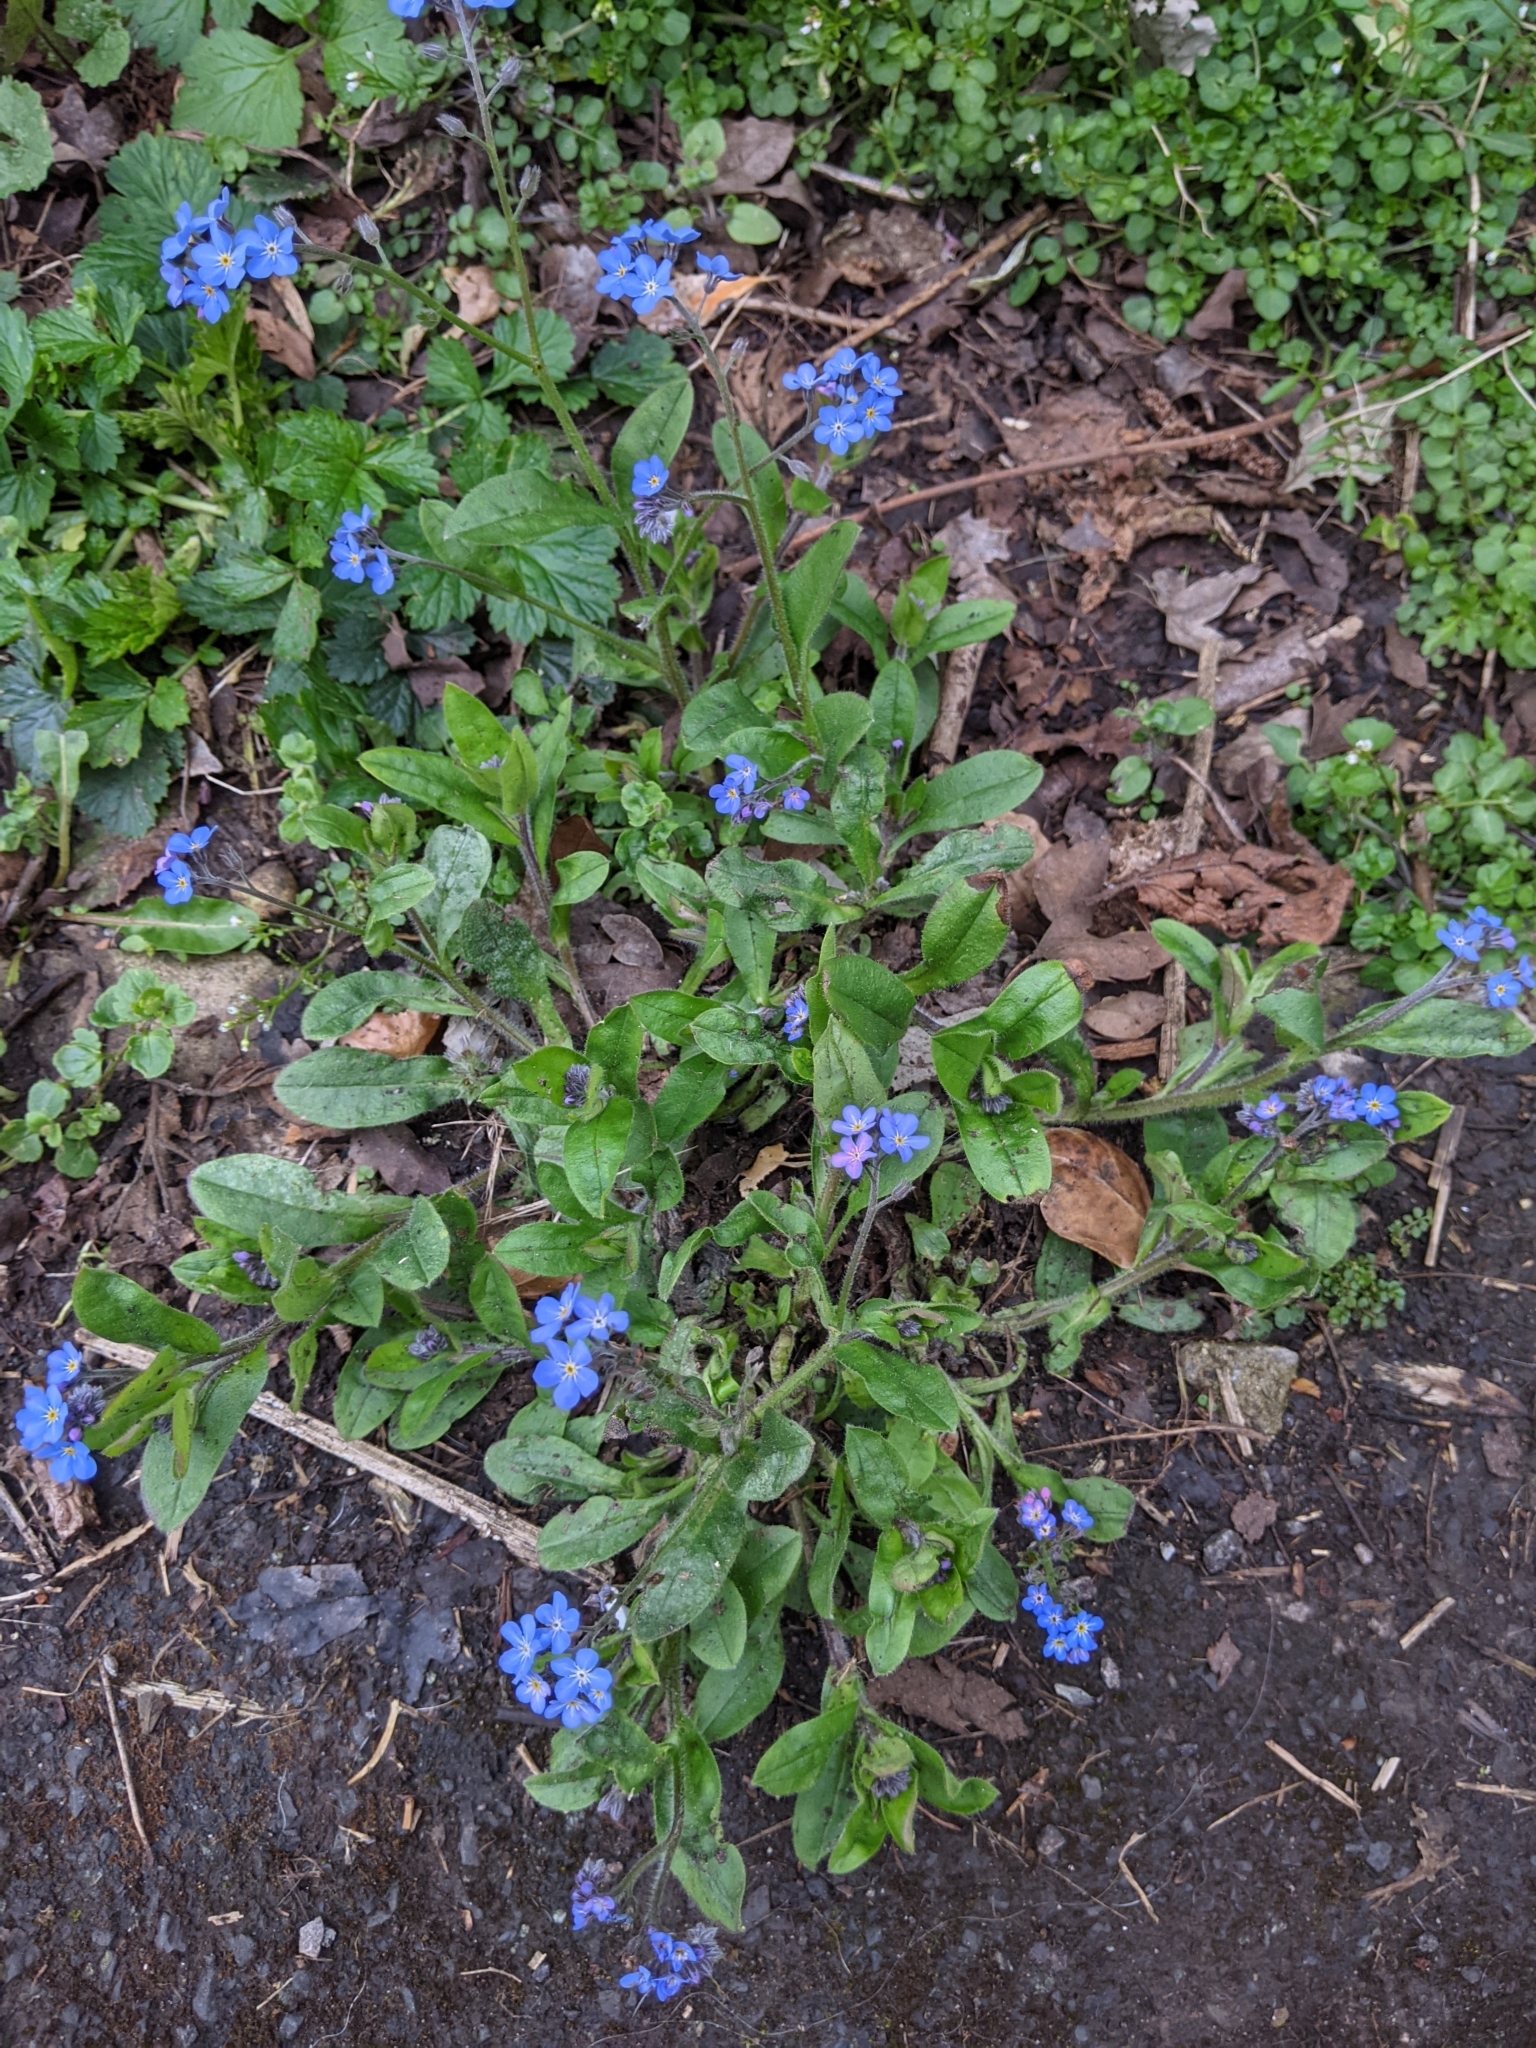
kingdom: Plantae
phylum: Tracheophyta
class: Magnoliopsida
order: Boraginales
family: Boraginaceae
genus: Myosotis
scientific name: Myosotis sylvatica
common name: Wood forget-me-not
